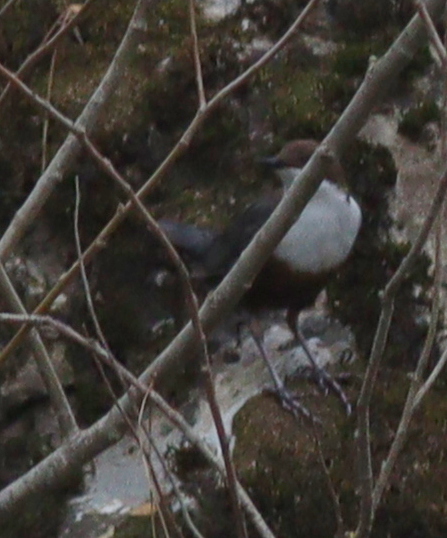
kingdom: Animalia
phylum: Chordata
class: Aves
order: Passeriformes
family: Cinclidae
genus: Cinclus
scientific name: Cinclus cinclus
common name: White-throated dipper
